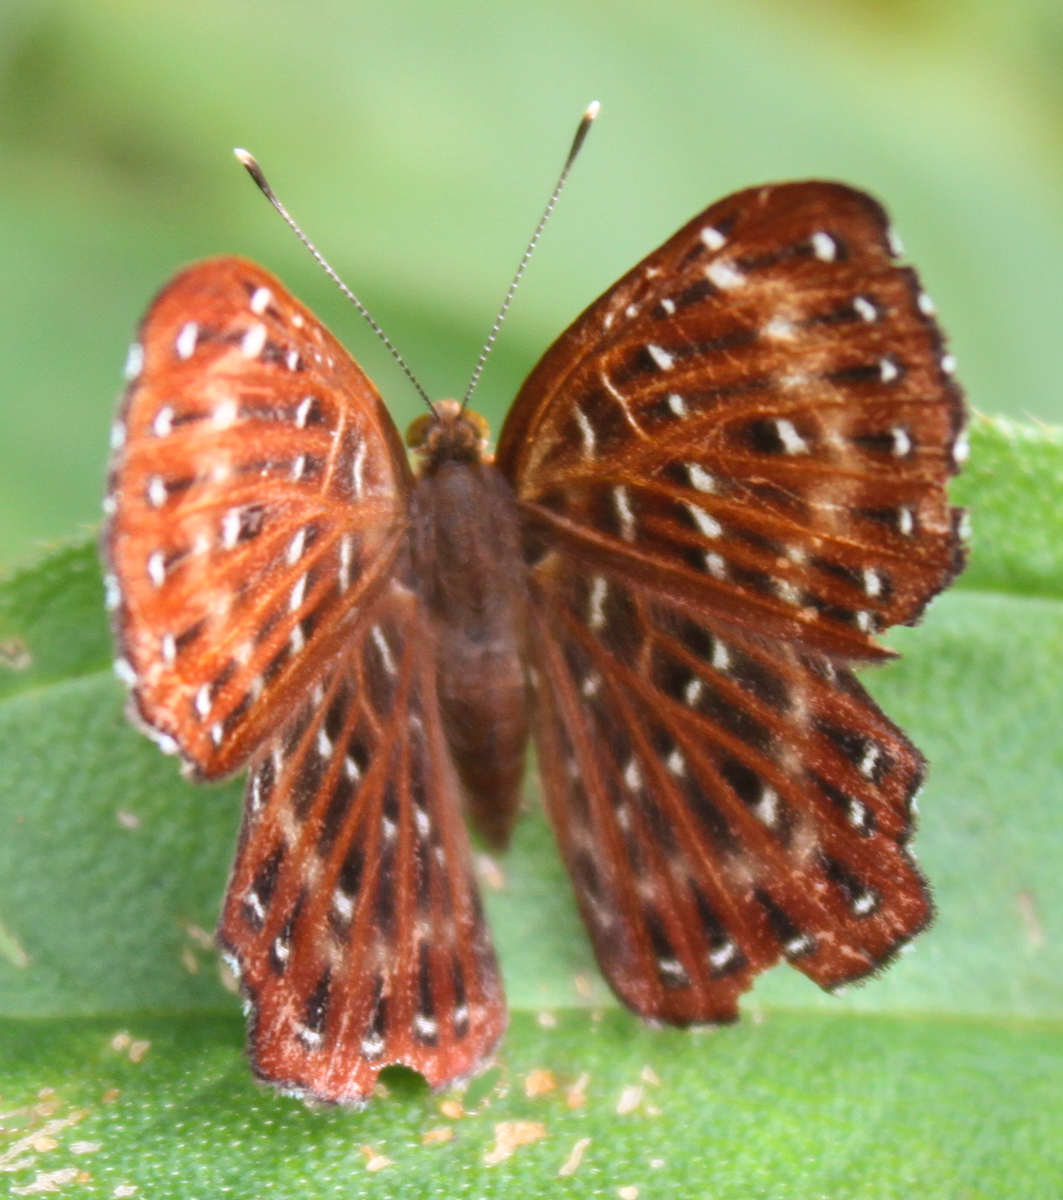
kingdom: Animalia
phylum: Arthropoda
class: Insecta
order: Lepidoptera
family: Riodinidae
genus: Zemeros
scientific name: Zemeros flegyas
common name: Punchinello
